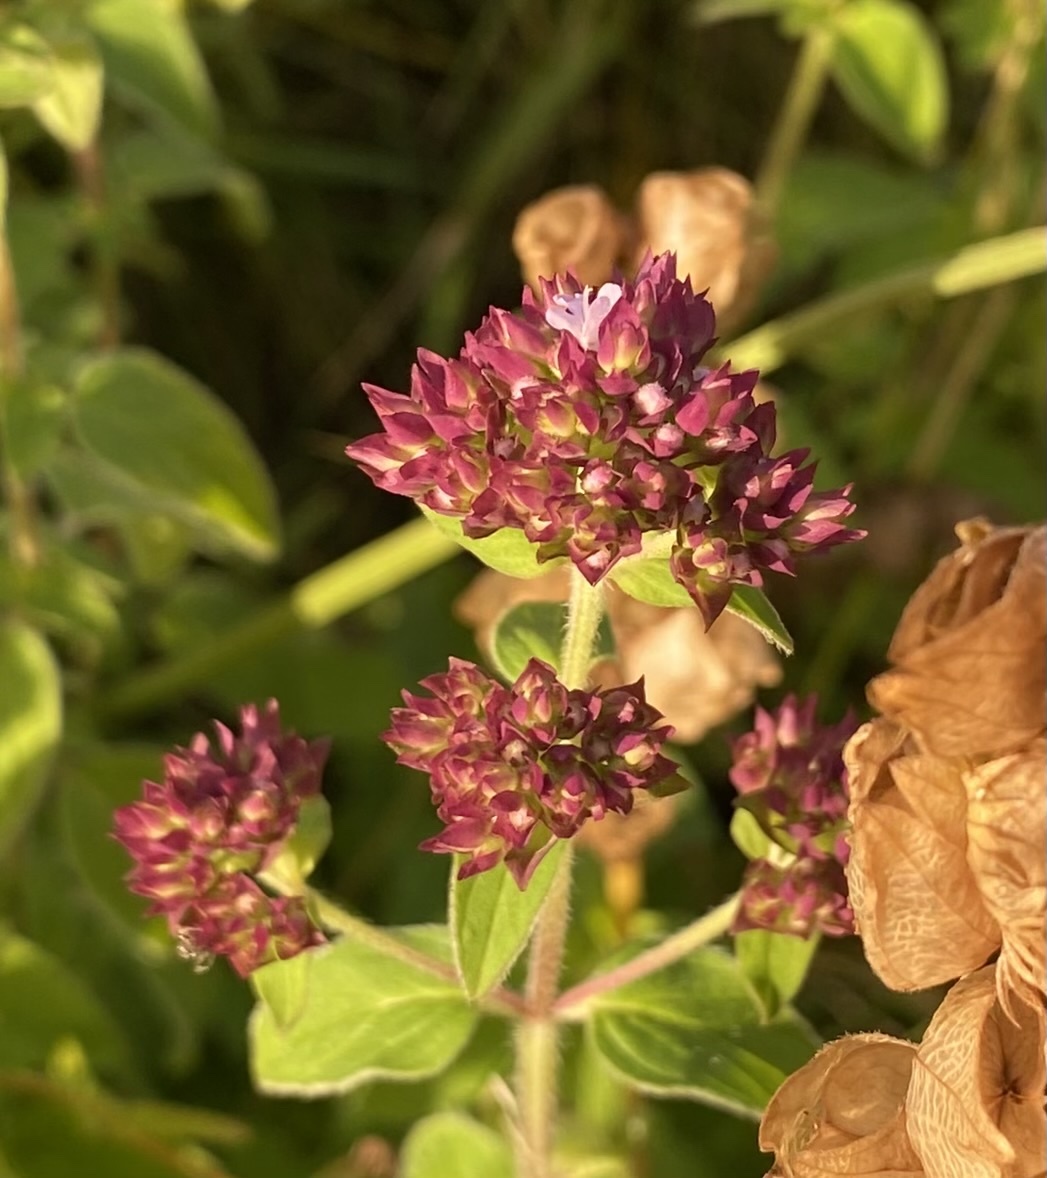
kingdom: Plantae
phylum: Tracheophyta
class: Magnoliopsida
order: Lamiales
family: Lamiaceae
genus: Origanum
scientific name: Origanum vulgare
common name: Wild marjoram
